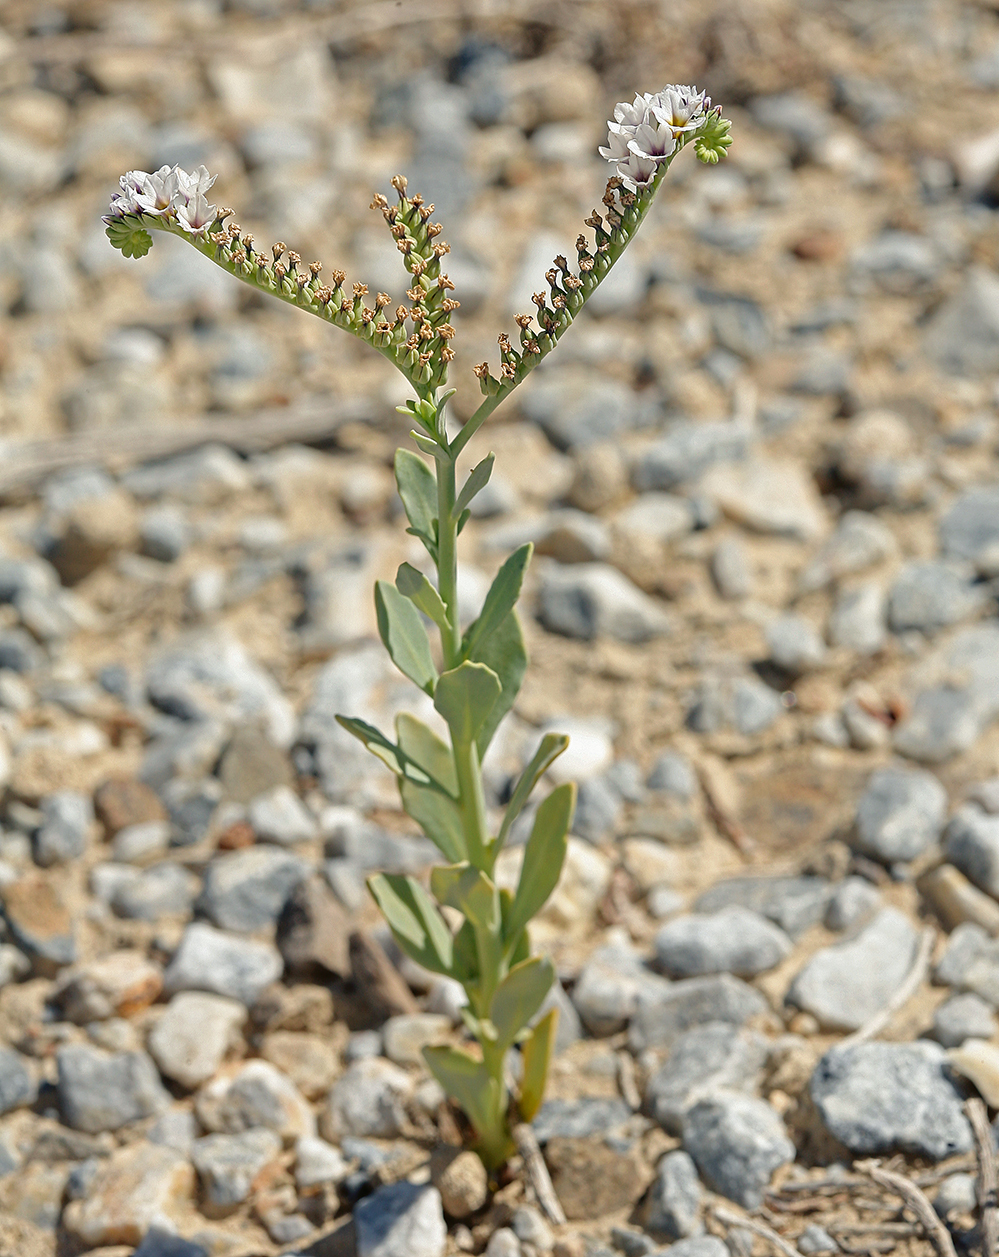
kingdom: Plantae
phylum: Tracheophyta
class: Magnoliopsida
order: Boraginales
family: Heliotropiaceae
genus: Heliotropium
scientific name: Heliotropium curassavicum
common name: Seaside heliotrope
